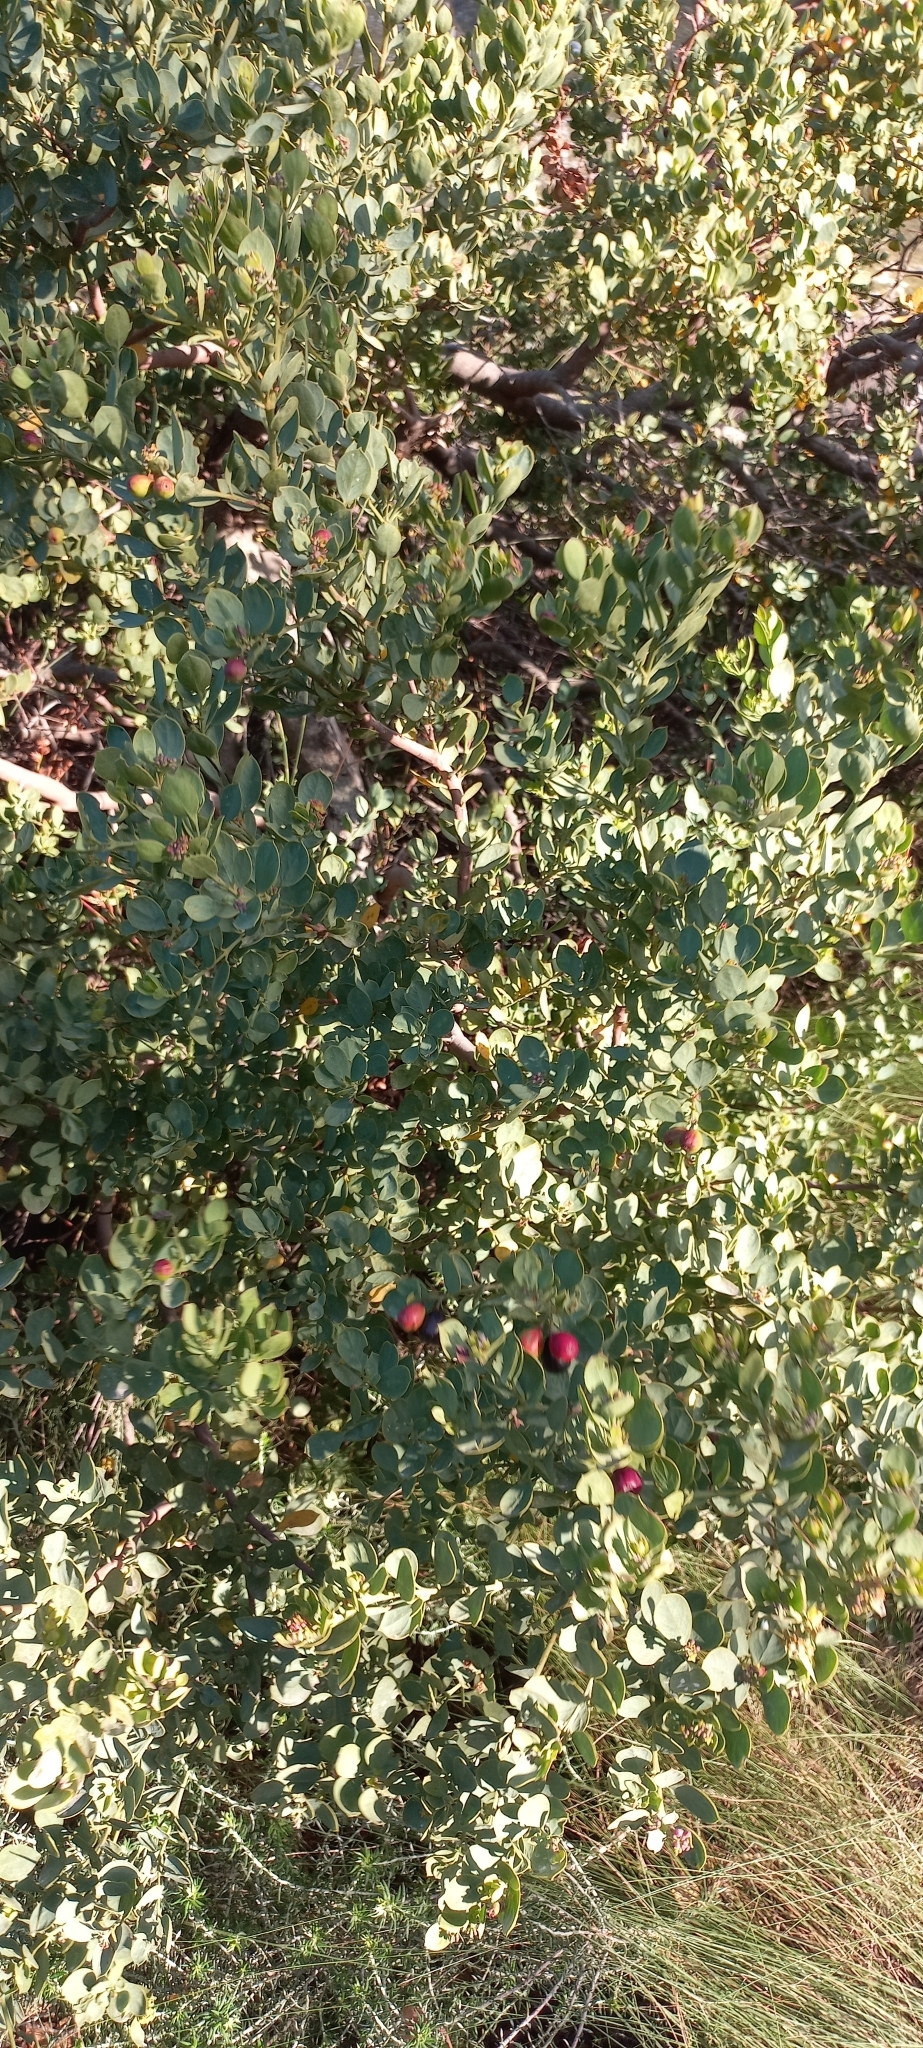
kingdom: Plantae
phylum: Tracheophyta
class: Magnoliopsida
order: Santalales
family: Santalaceae
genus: Osyris
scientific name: Osyris compressa
